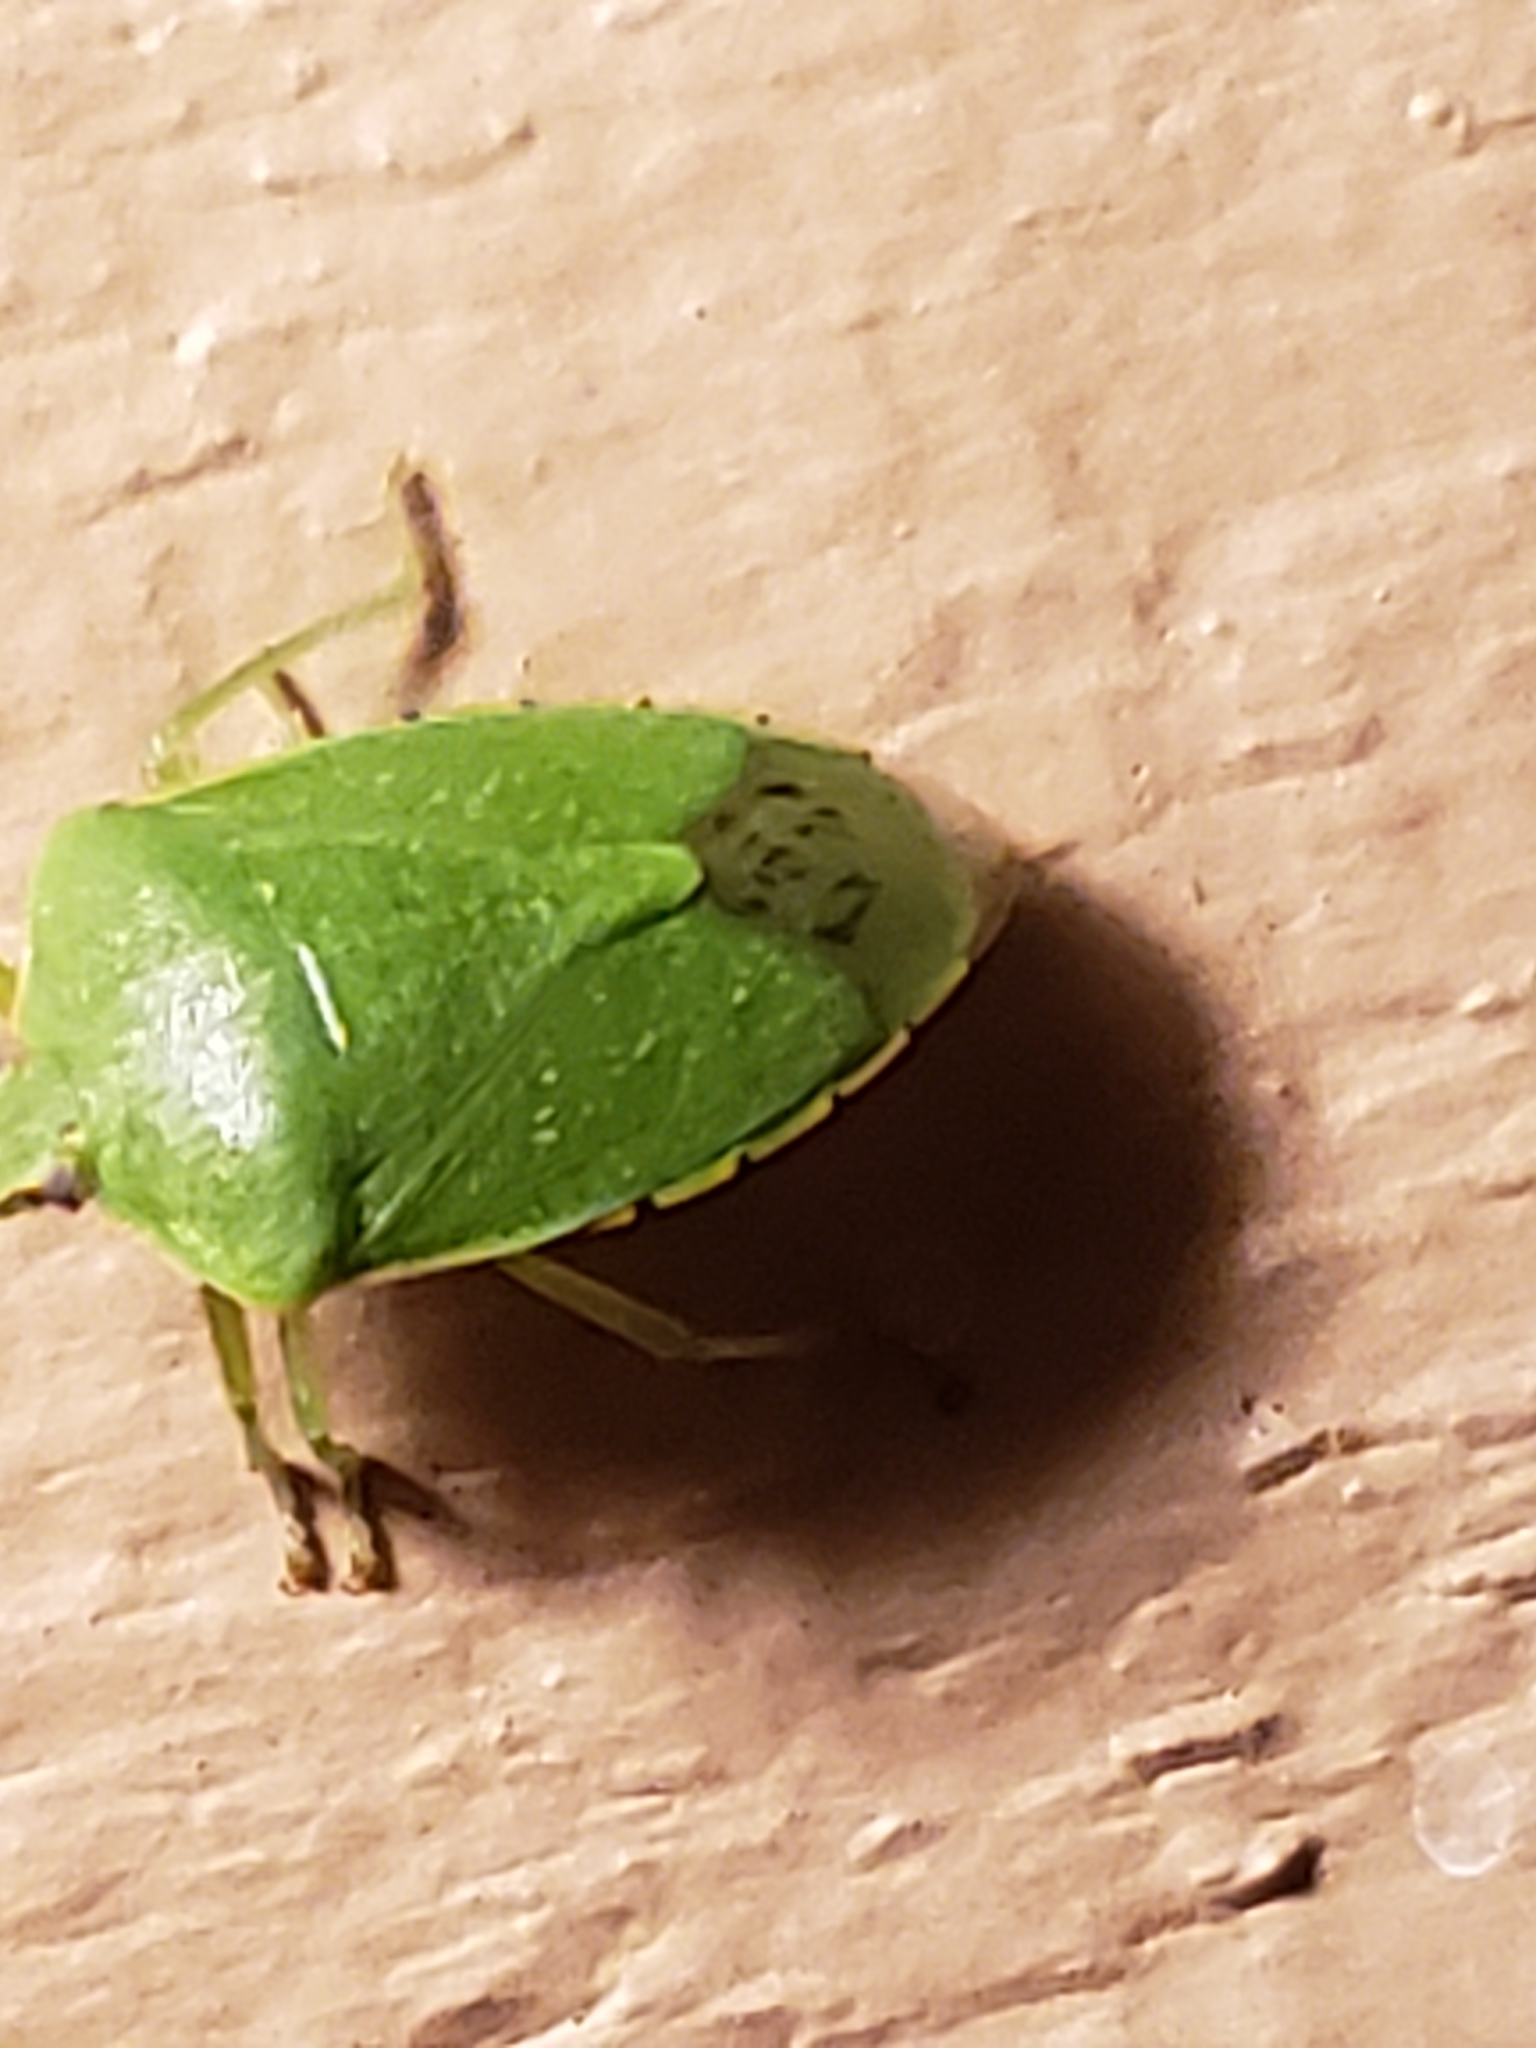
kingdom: Animalia
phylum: Arthropoda
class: Insecta
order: Hemiptera
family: Pentatomidae
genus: Chinavia
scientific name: Chinavia hilaris
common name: Green stink bug
